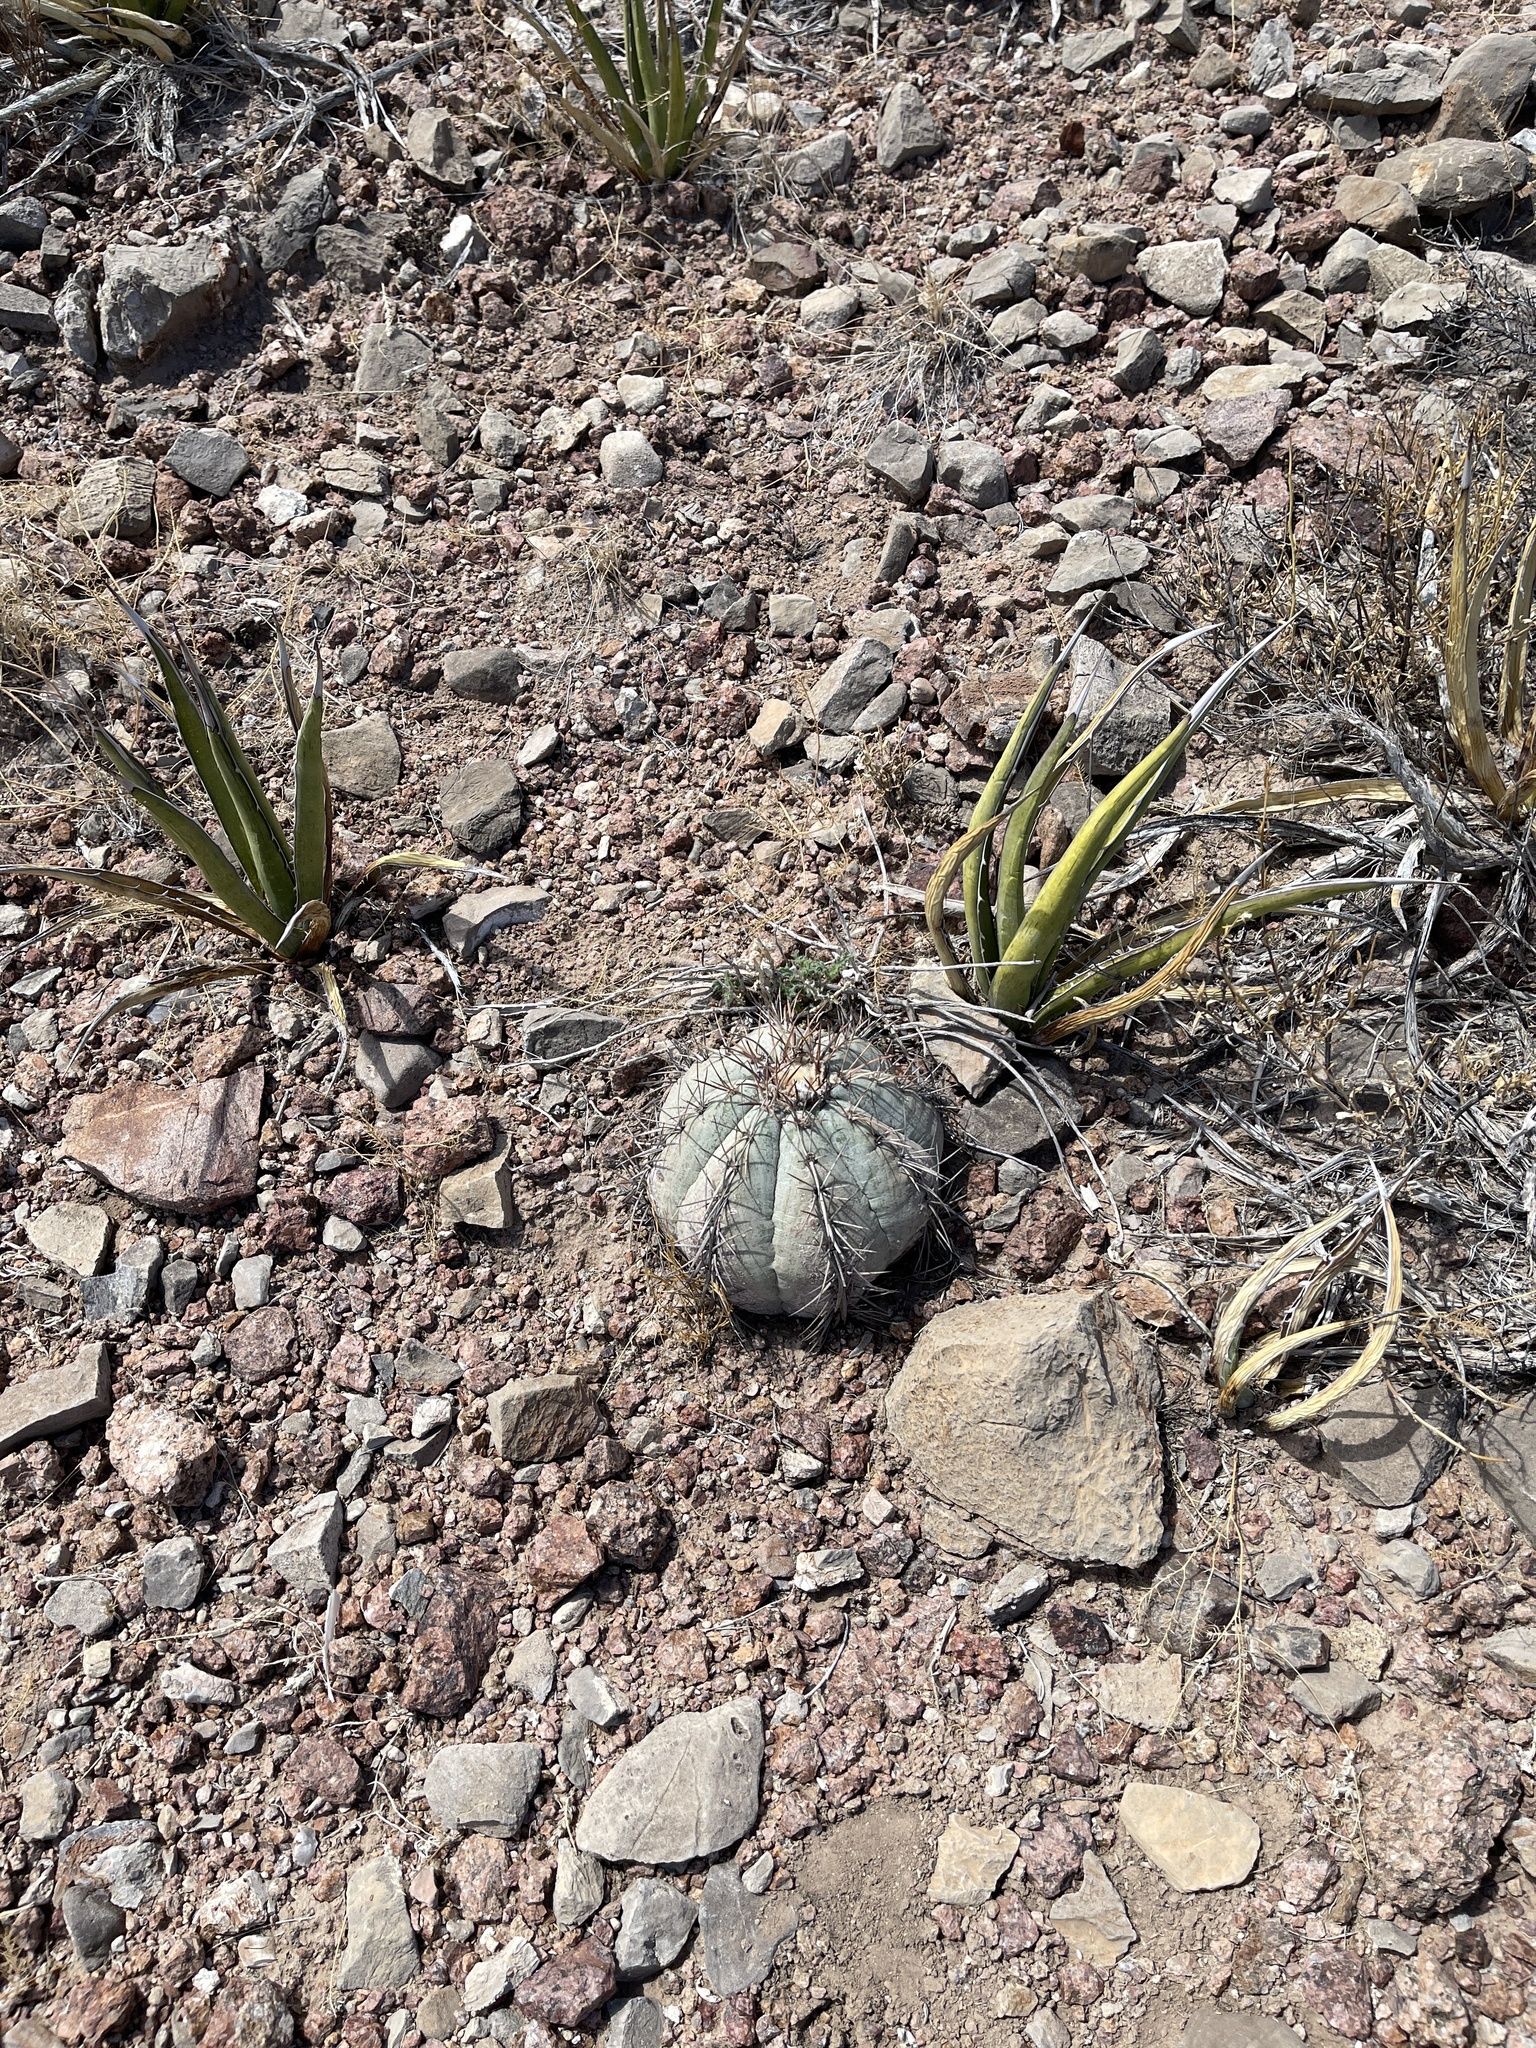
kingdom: Plantae
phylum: Tracheophyta
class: Magnoliopsida
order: Caryophyllales
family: Cactaceae
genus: Echinocactus
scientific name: Echinocactus horizonthalonius
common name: Devilshead
